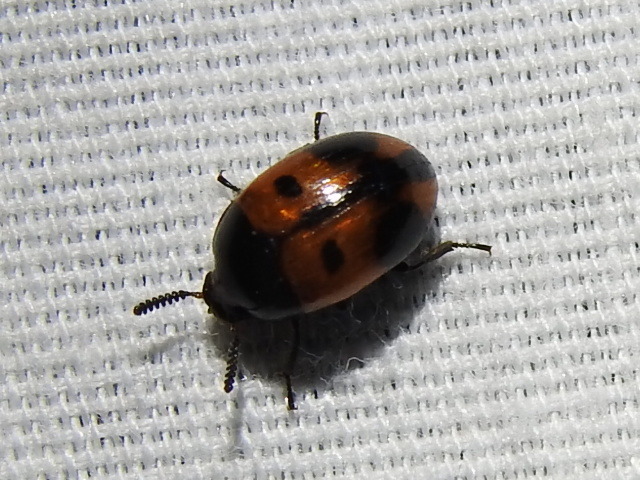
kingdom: Animalia
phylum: Arthropoda
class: Insecta
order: Coleoptera
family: Tenebrionidae
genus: Diaperis
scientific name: Diaperis maculata
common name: Darkling beetle
